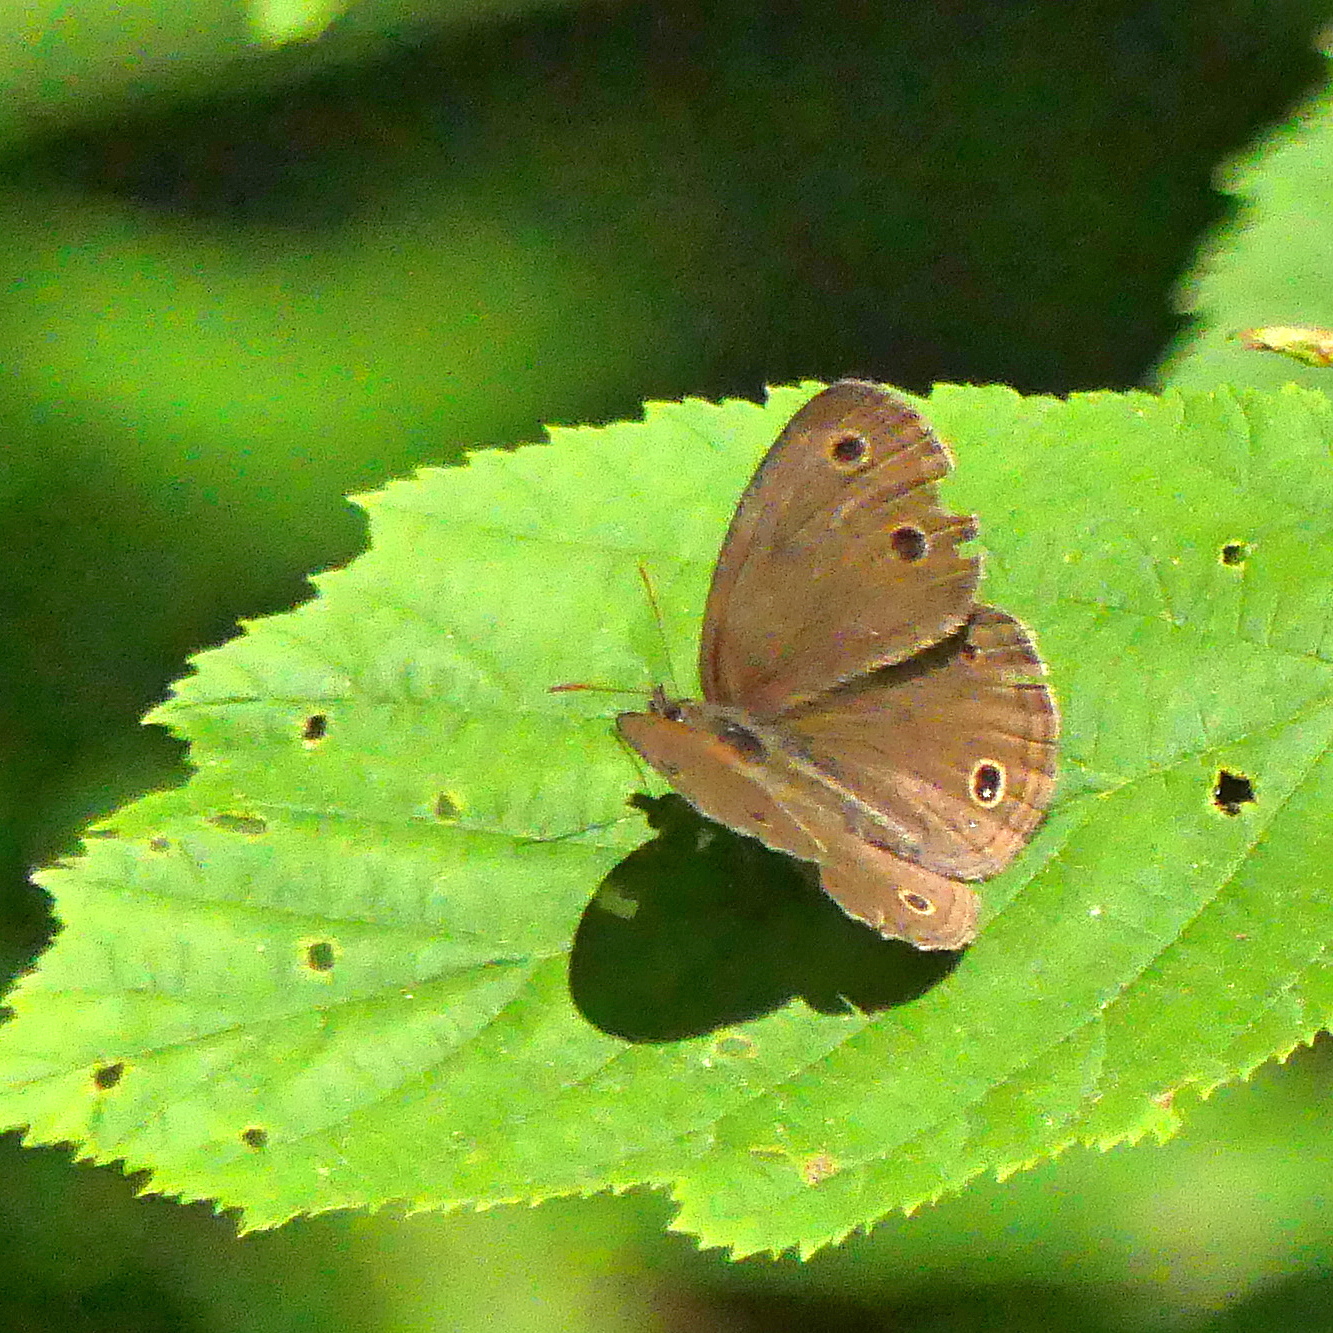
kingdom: Animalia
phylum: Arthropoda
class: Insecta
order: Lepidoptera
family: Nymphalidae
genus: Euptychia
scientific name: Euptychia cymela
